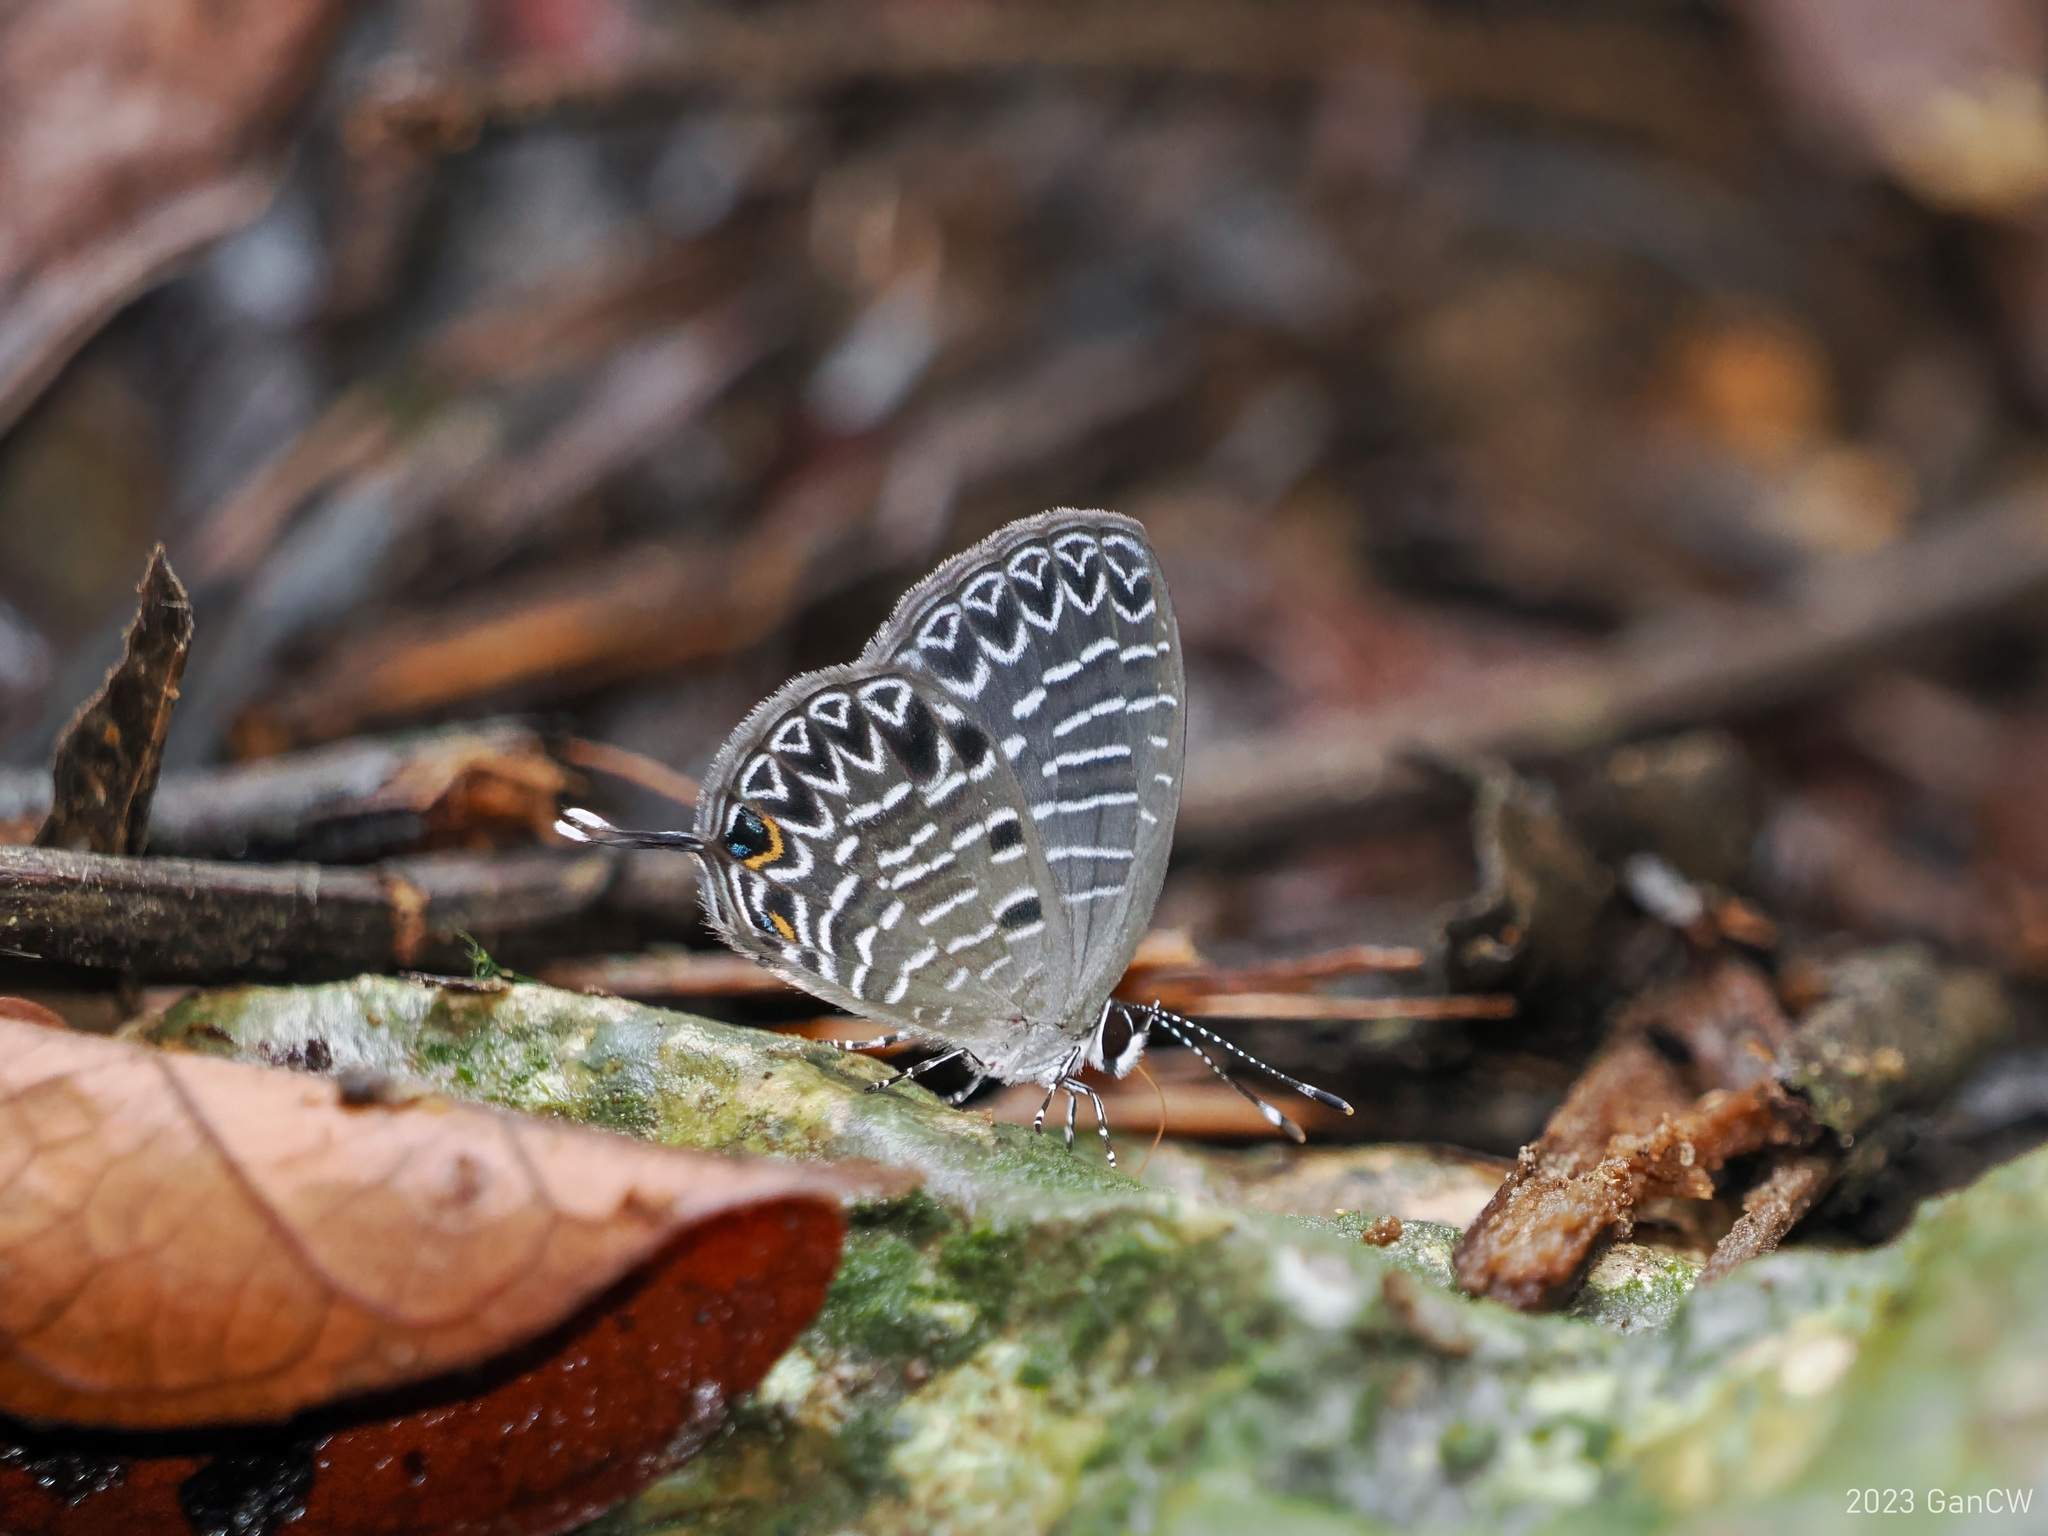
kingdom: Animalia
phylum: Arthropoda
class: Insecta
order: Lepidoptera
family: Lycaenidae
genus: Jamides
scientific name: Jamides
